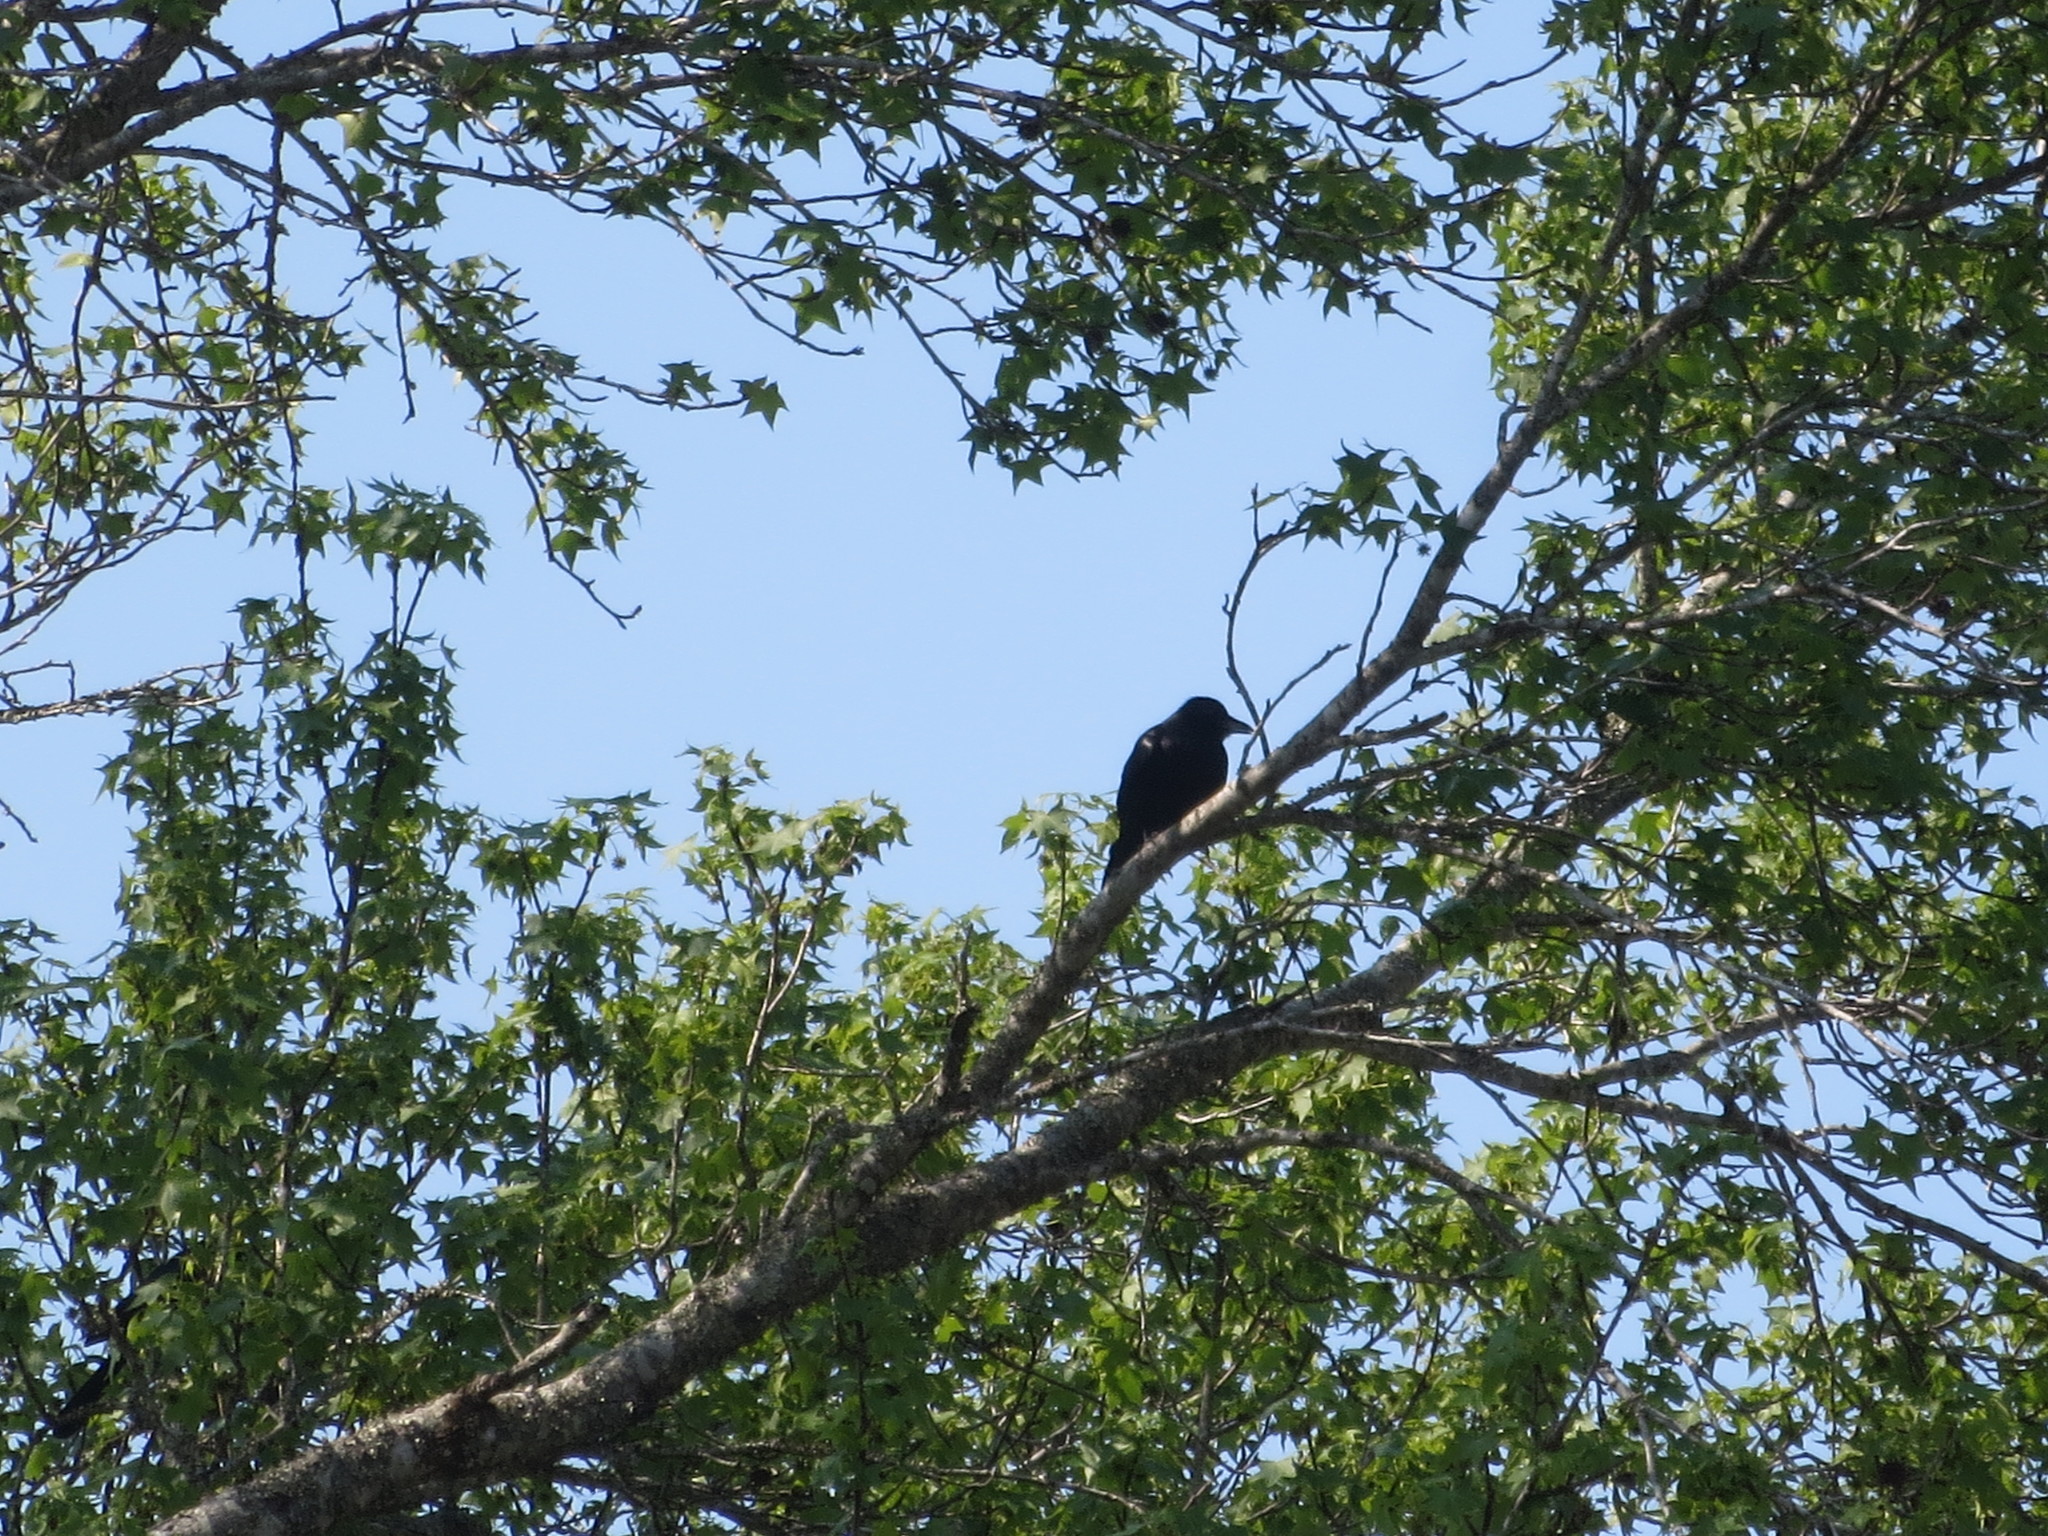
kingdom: Animalia
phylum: Chordata
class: Aves
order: Passeriformes
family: Corvidae
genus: Corvus
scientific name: Corvus ossifragus
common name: Fish crow
